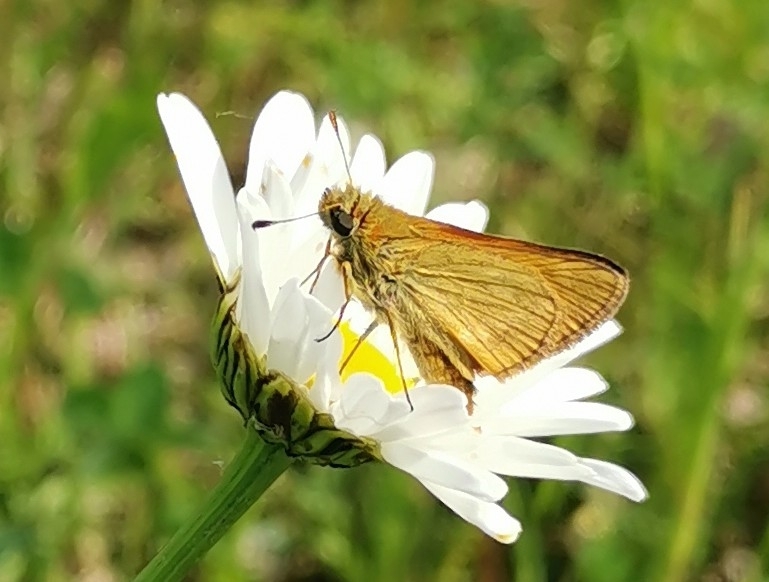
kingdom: Animalia
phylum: Arthropoda
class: Insecta
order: Lepidoptera
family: Hesperiidae
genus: Ochlodes
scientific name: Ochlodes venata
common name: Large skipper
